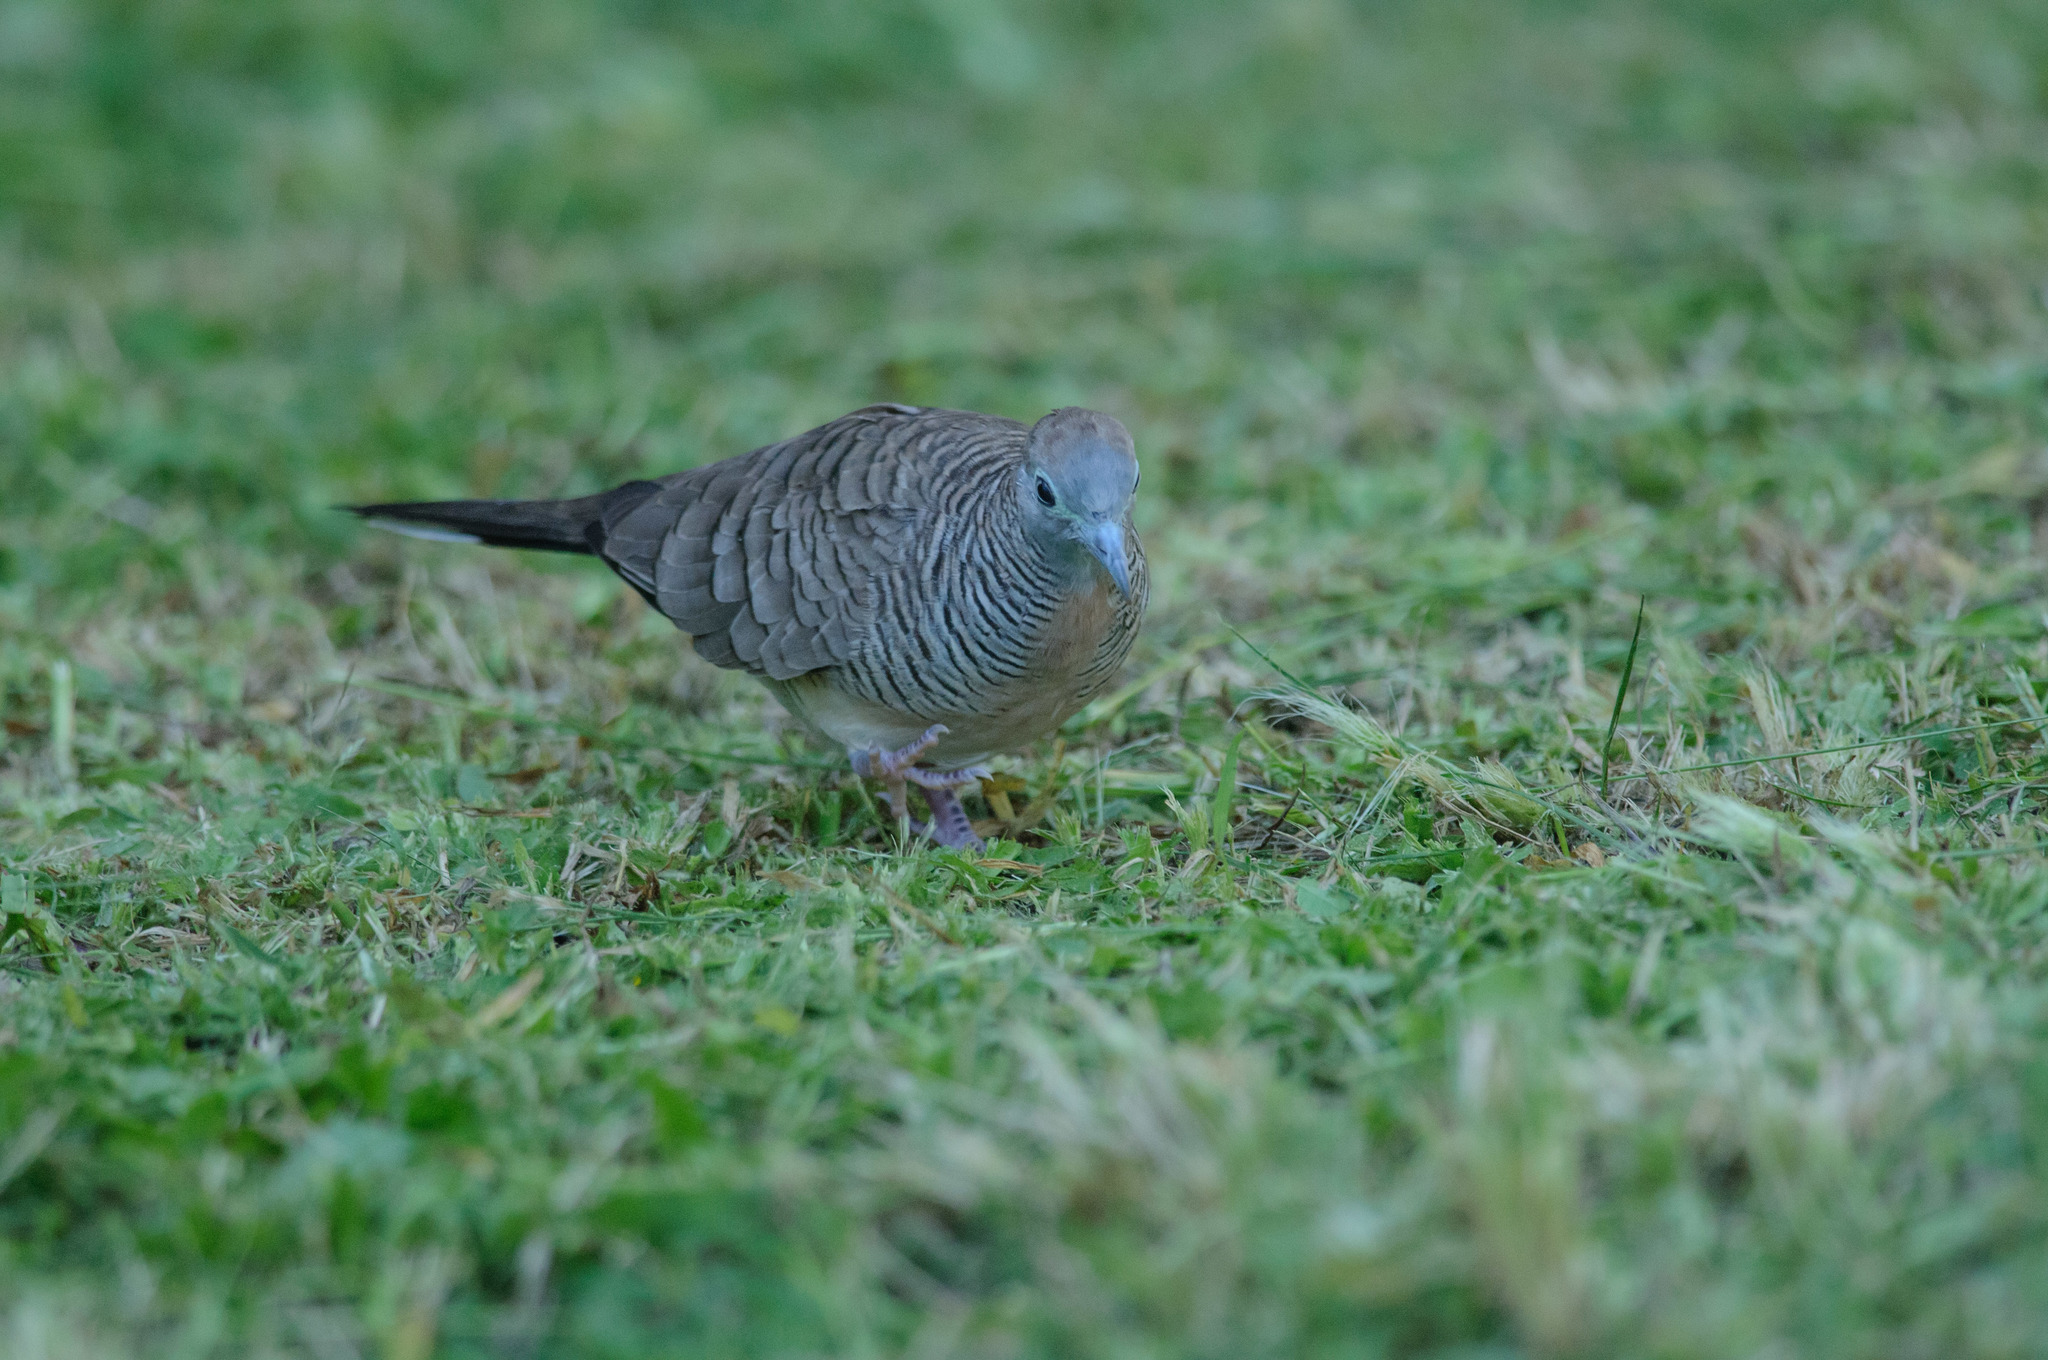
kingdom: Animalia
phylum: Chordata
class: Aves
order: Columbiformes
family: Columbidae
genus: Geopelia
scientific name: Geopelia striata
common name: Zebra dove
